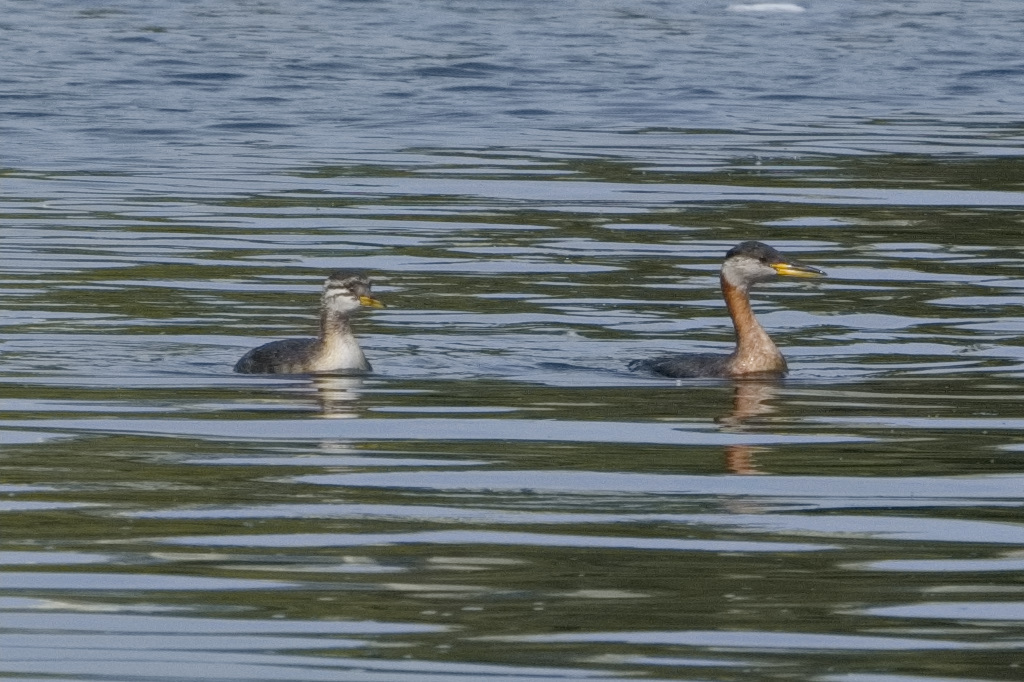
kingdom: Animalia
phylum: Chordata
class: Aves
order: Podicipediformes
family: Podicipedidae
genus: Podiceps
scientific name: Podiceps grisegena
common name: Red-necked grebe
